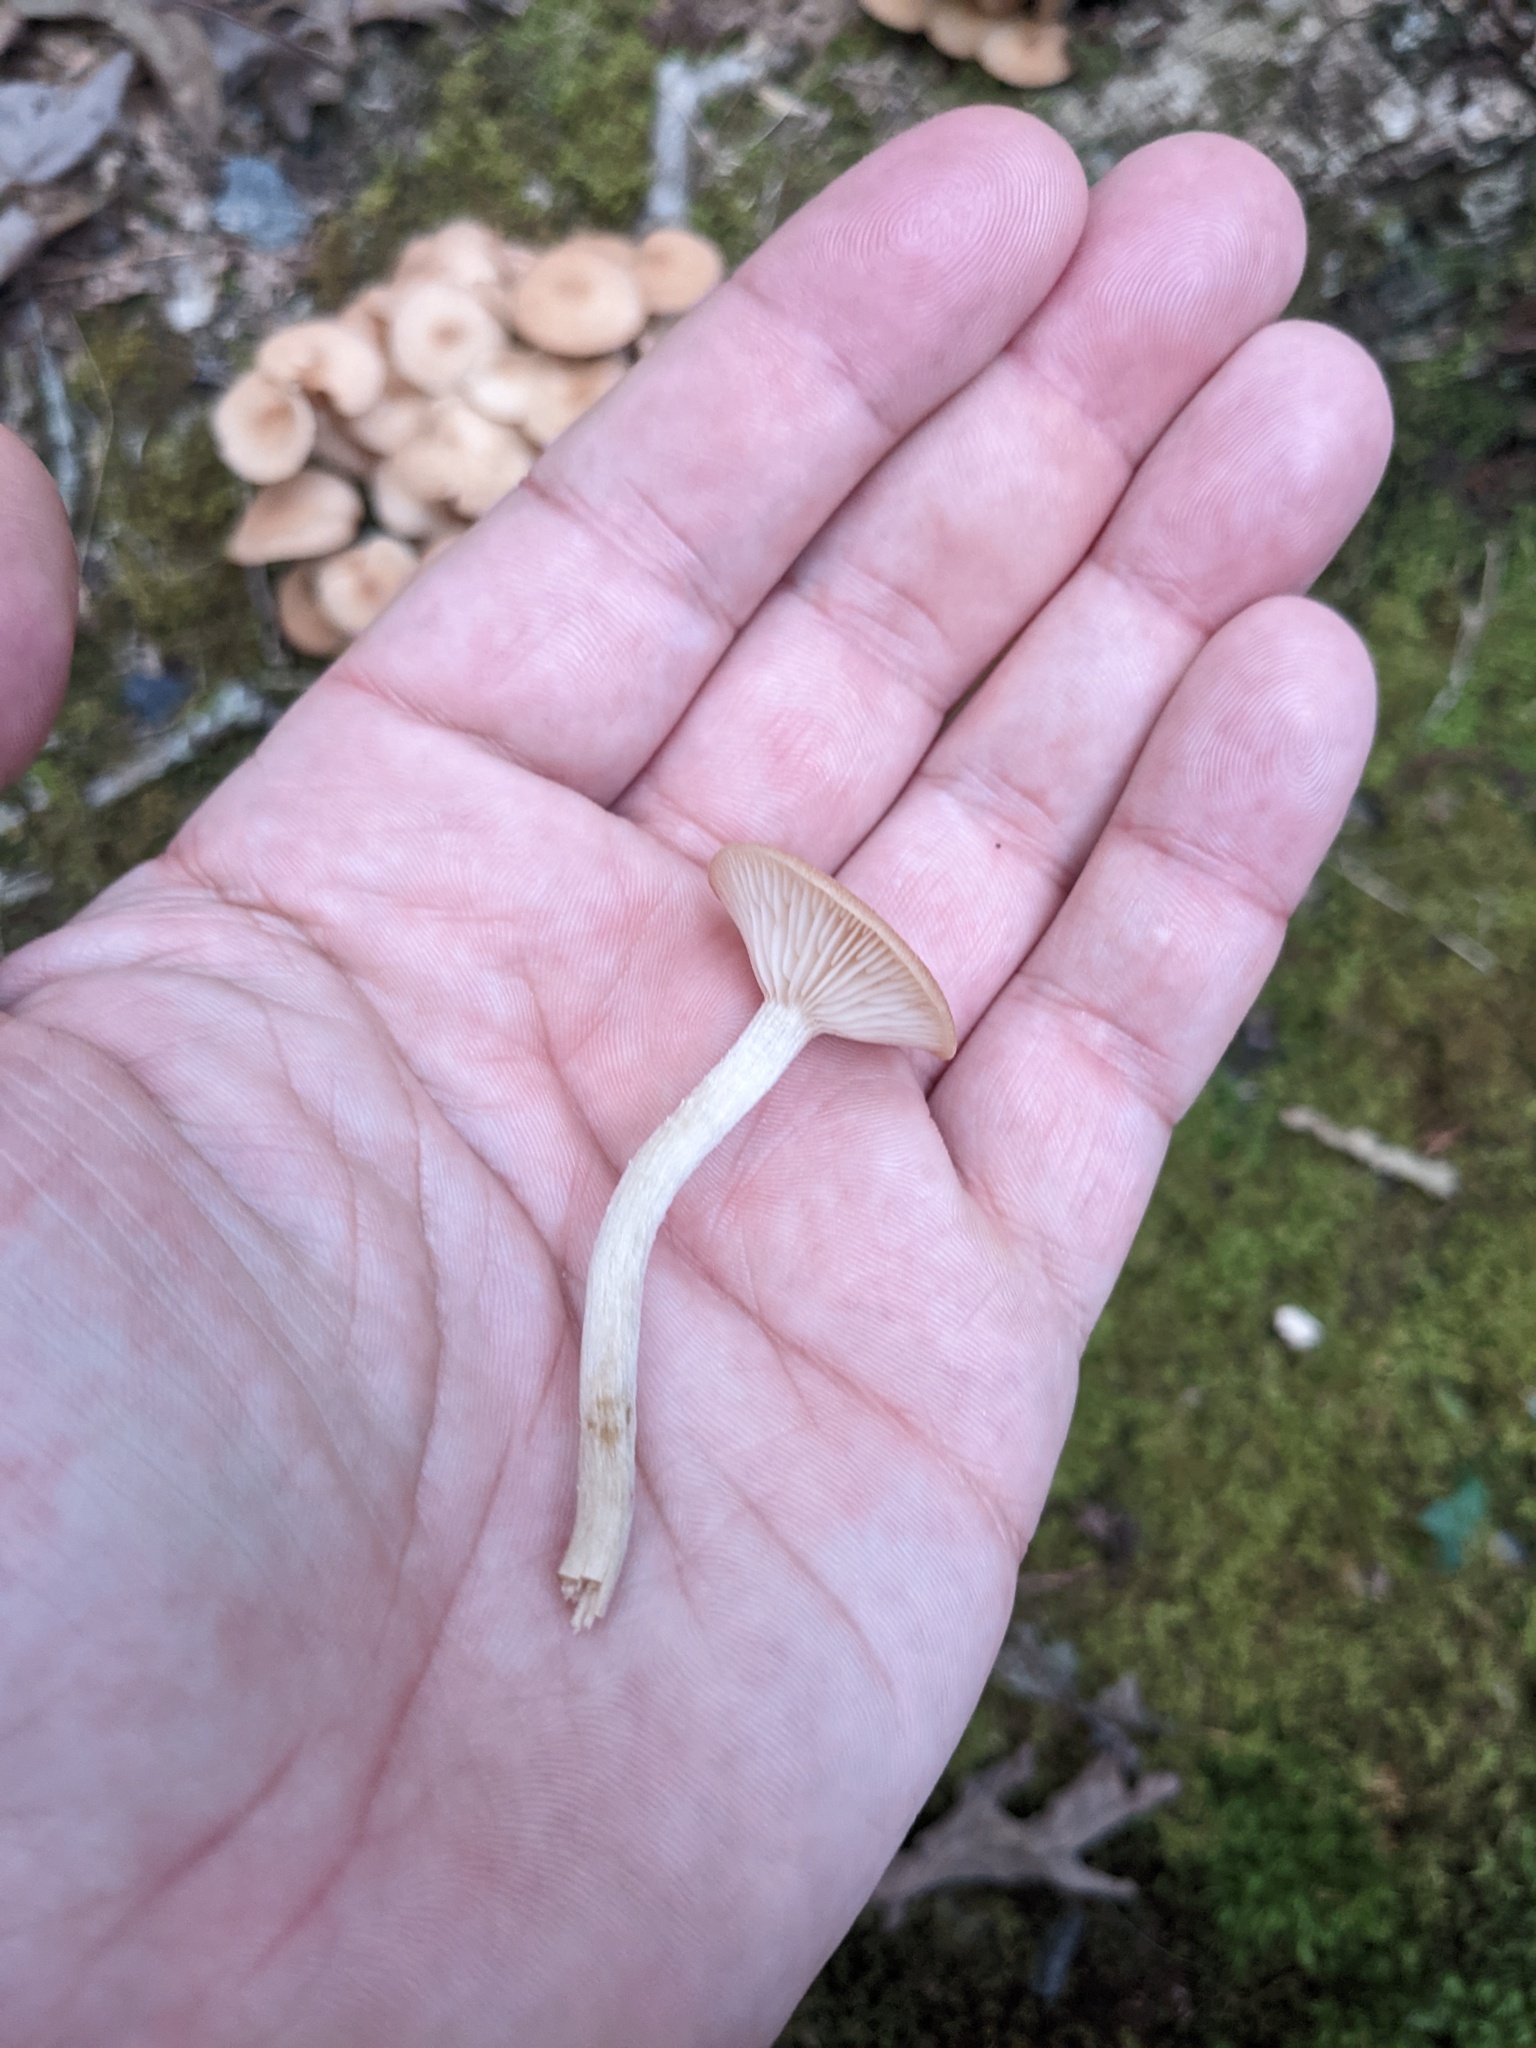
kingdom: Fungi
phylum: Basidiomycota
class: Agaricomycetes
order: Agaricales
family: Physalacriaceae
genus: Desarmillaria
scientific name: Desarmillaria caespitosa
